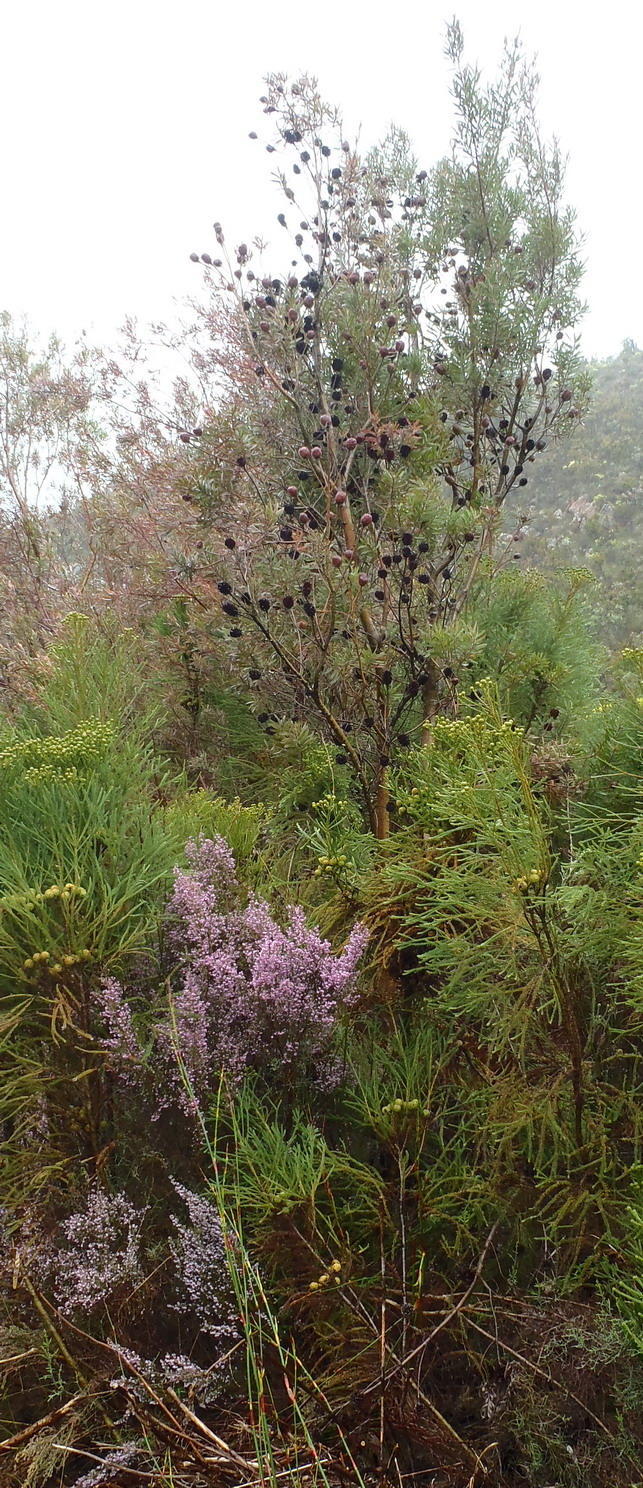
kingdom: Plantae
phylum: Tracheophyta
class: Magnoliopsida
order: Proteales
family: Proteaceae
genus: Leucadendron
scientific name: Leucadendron conicum
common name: Garden route conebush
